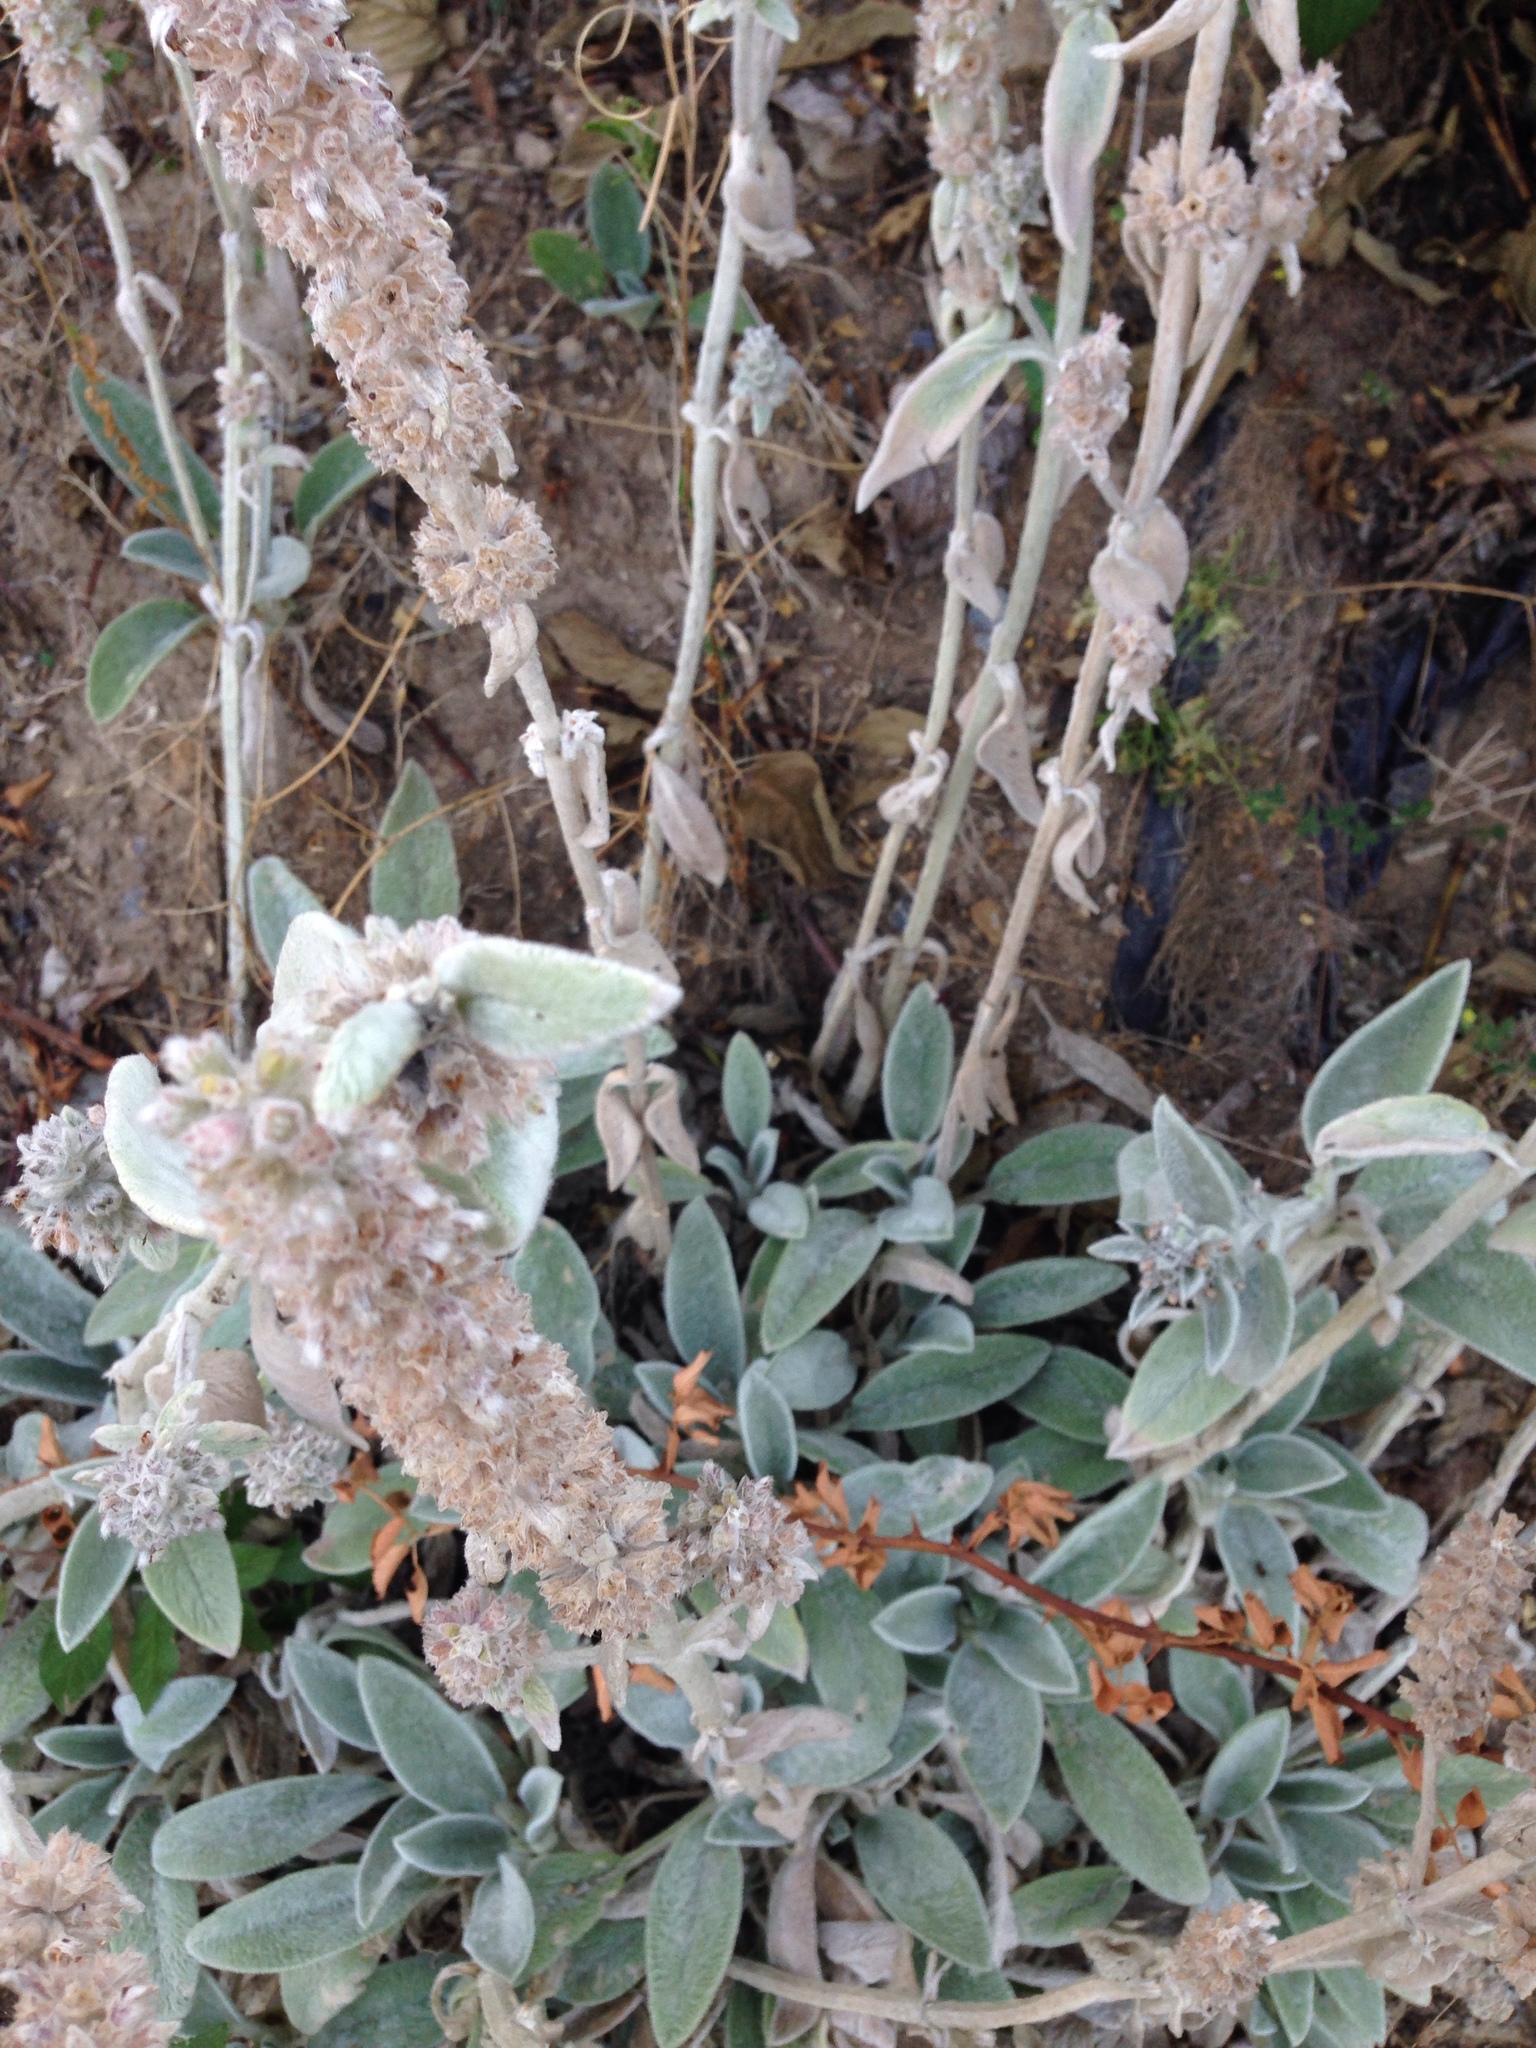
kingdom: Plantae
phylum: Tracheophyta
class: Magnoliopsida
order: Lamiales
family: Lamiaceae
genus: Stachys
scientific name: Stachys byzantina
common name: Lamb's-ear
